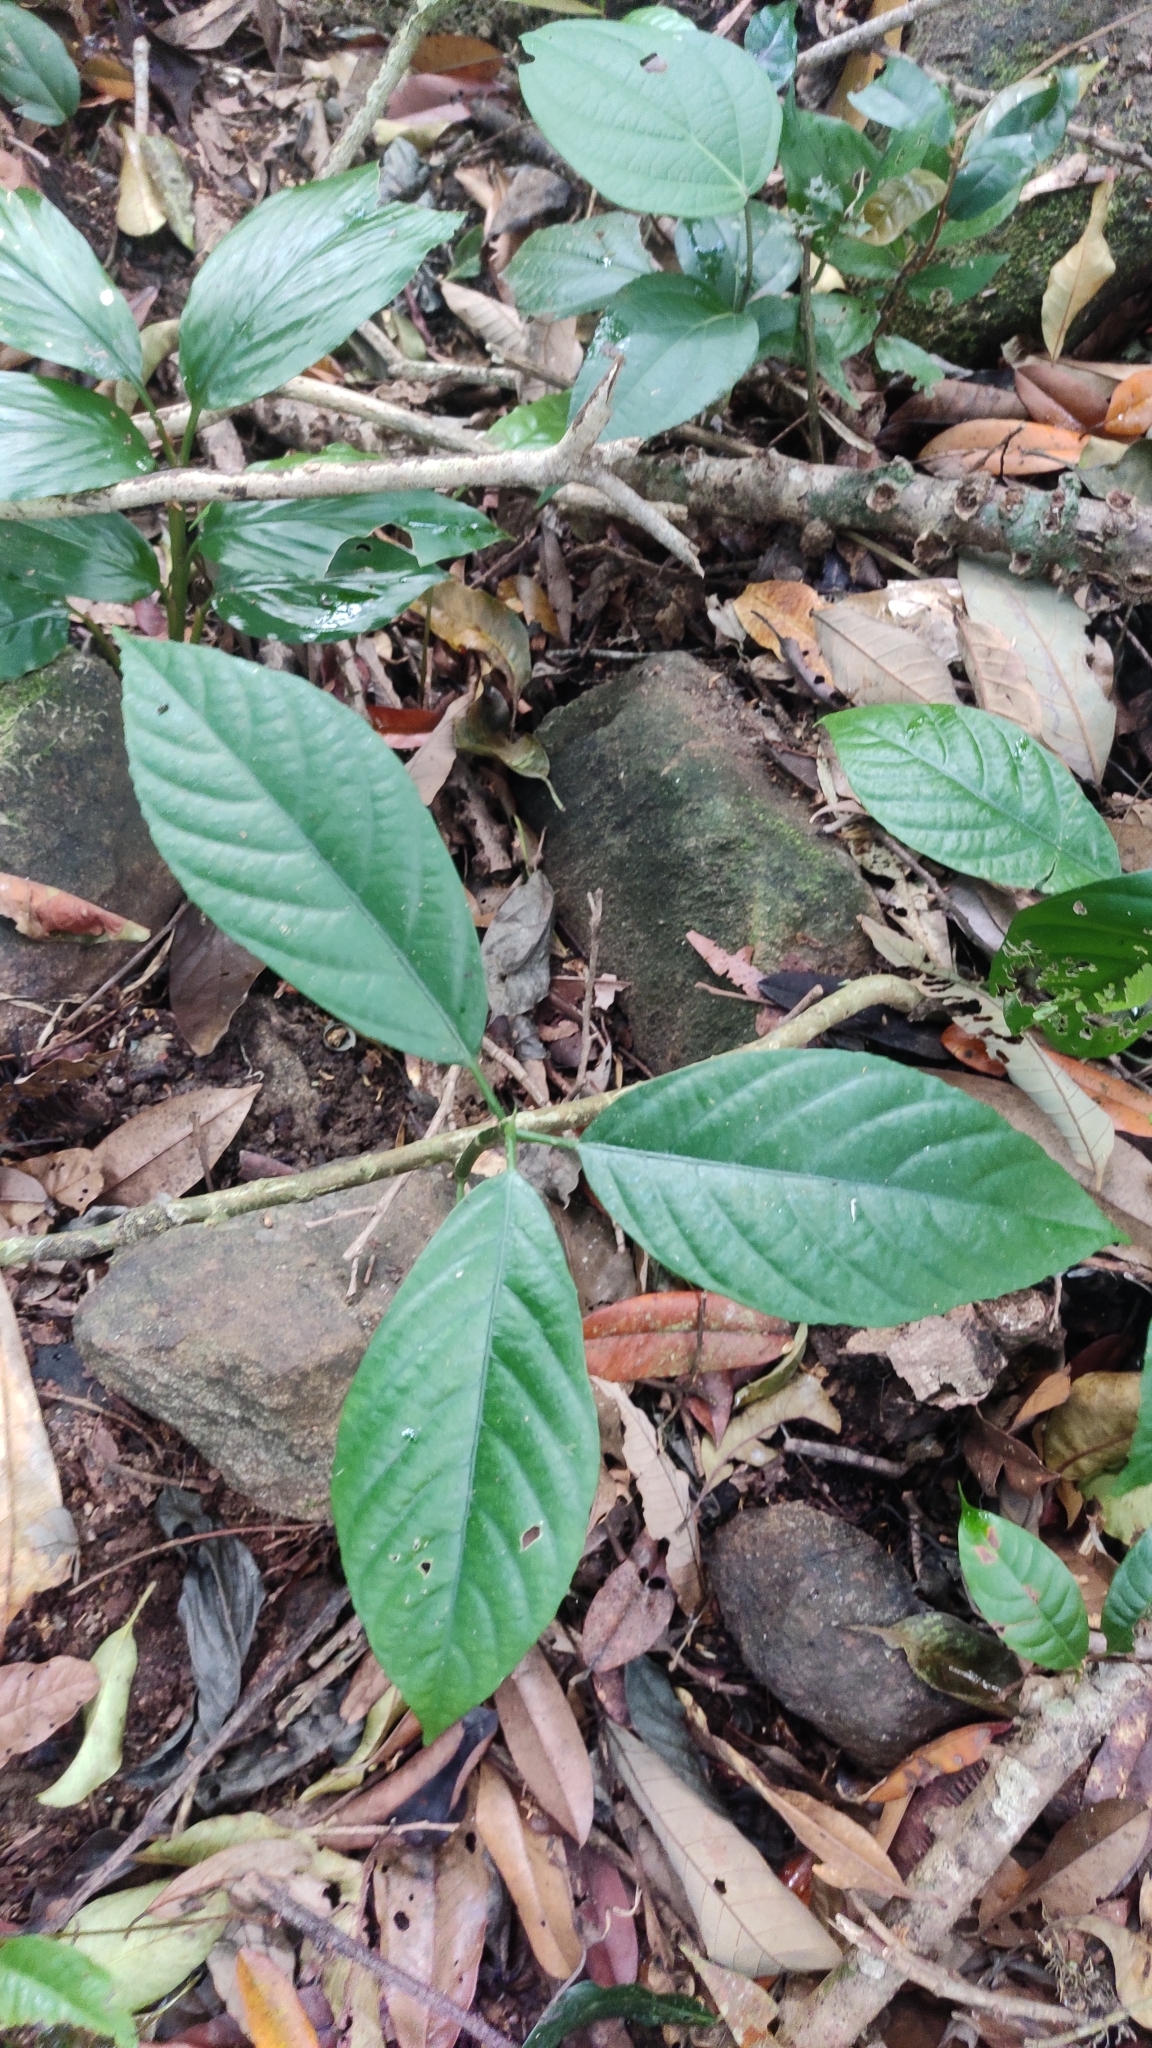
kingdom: Plantae
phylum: Tracheophyta
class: Magnoliopsida
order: Rosales
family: Urticaceae
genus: Dendrocnide
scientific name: Dendrocnide sinuata
